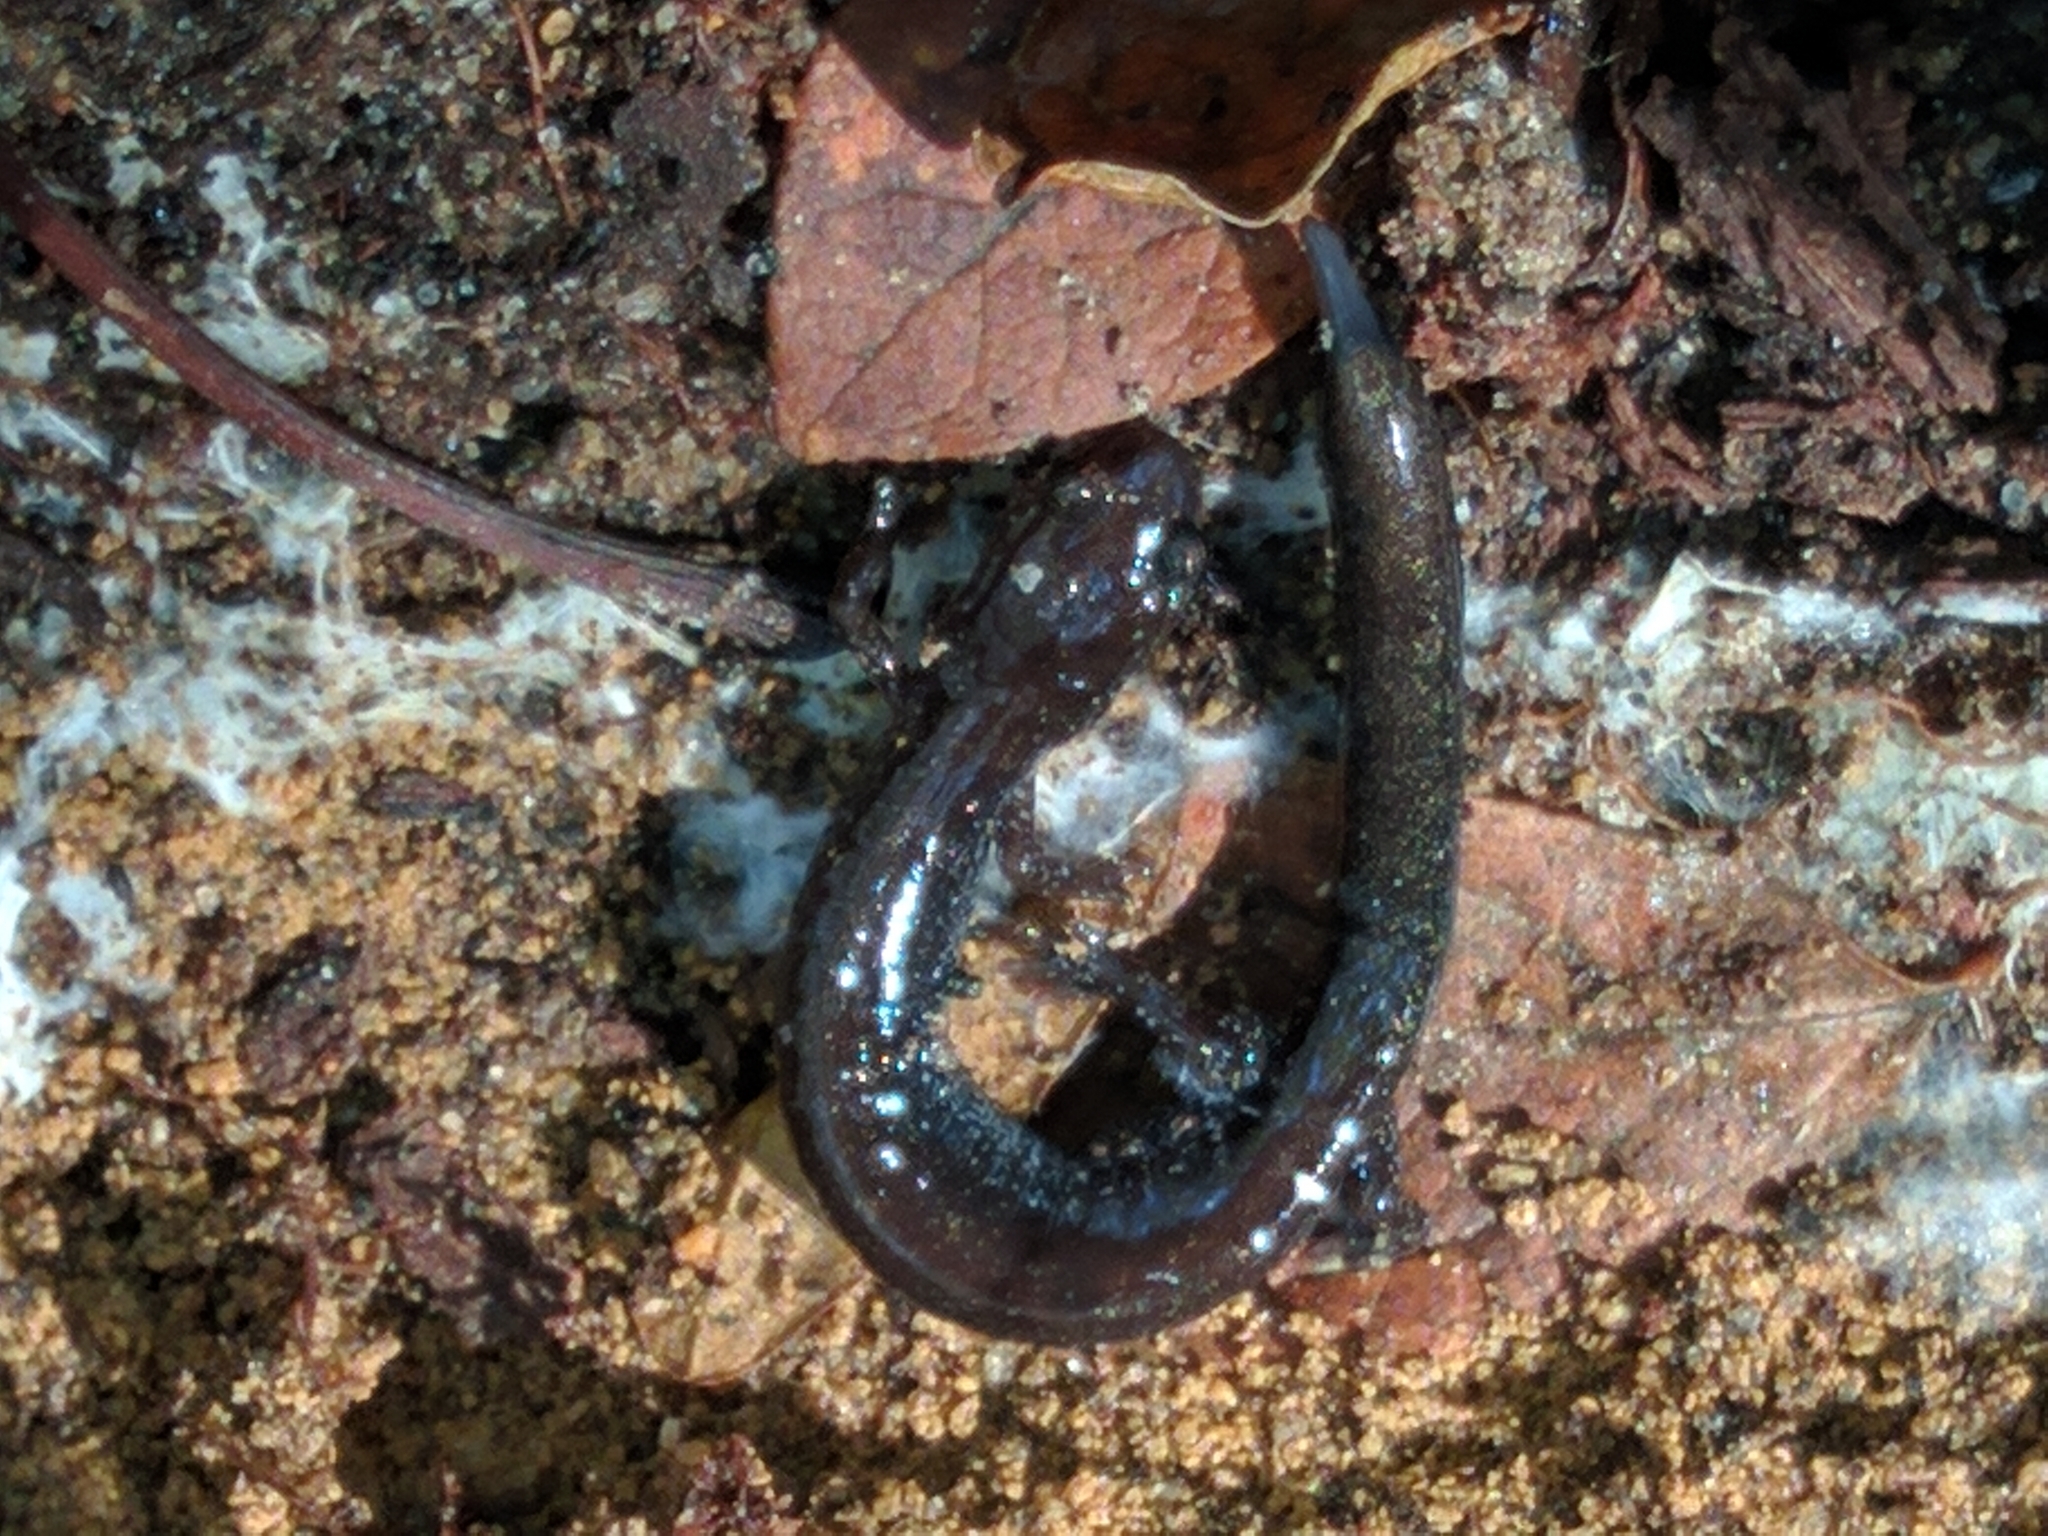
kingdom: Animalia
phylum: Chordata
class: Amphibia
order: Caudata
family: Plethodontidae
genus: Plethodon
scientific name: Plethodon cinereus
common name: Redback salamander
